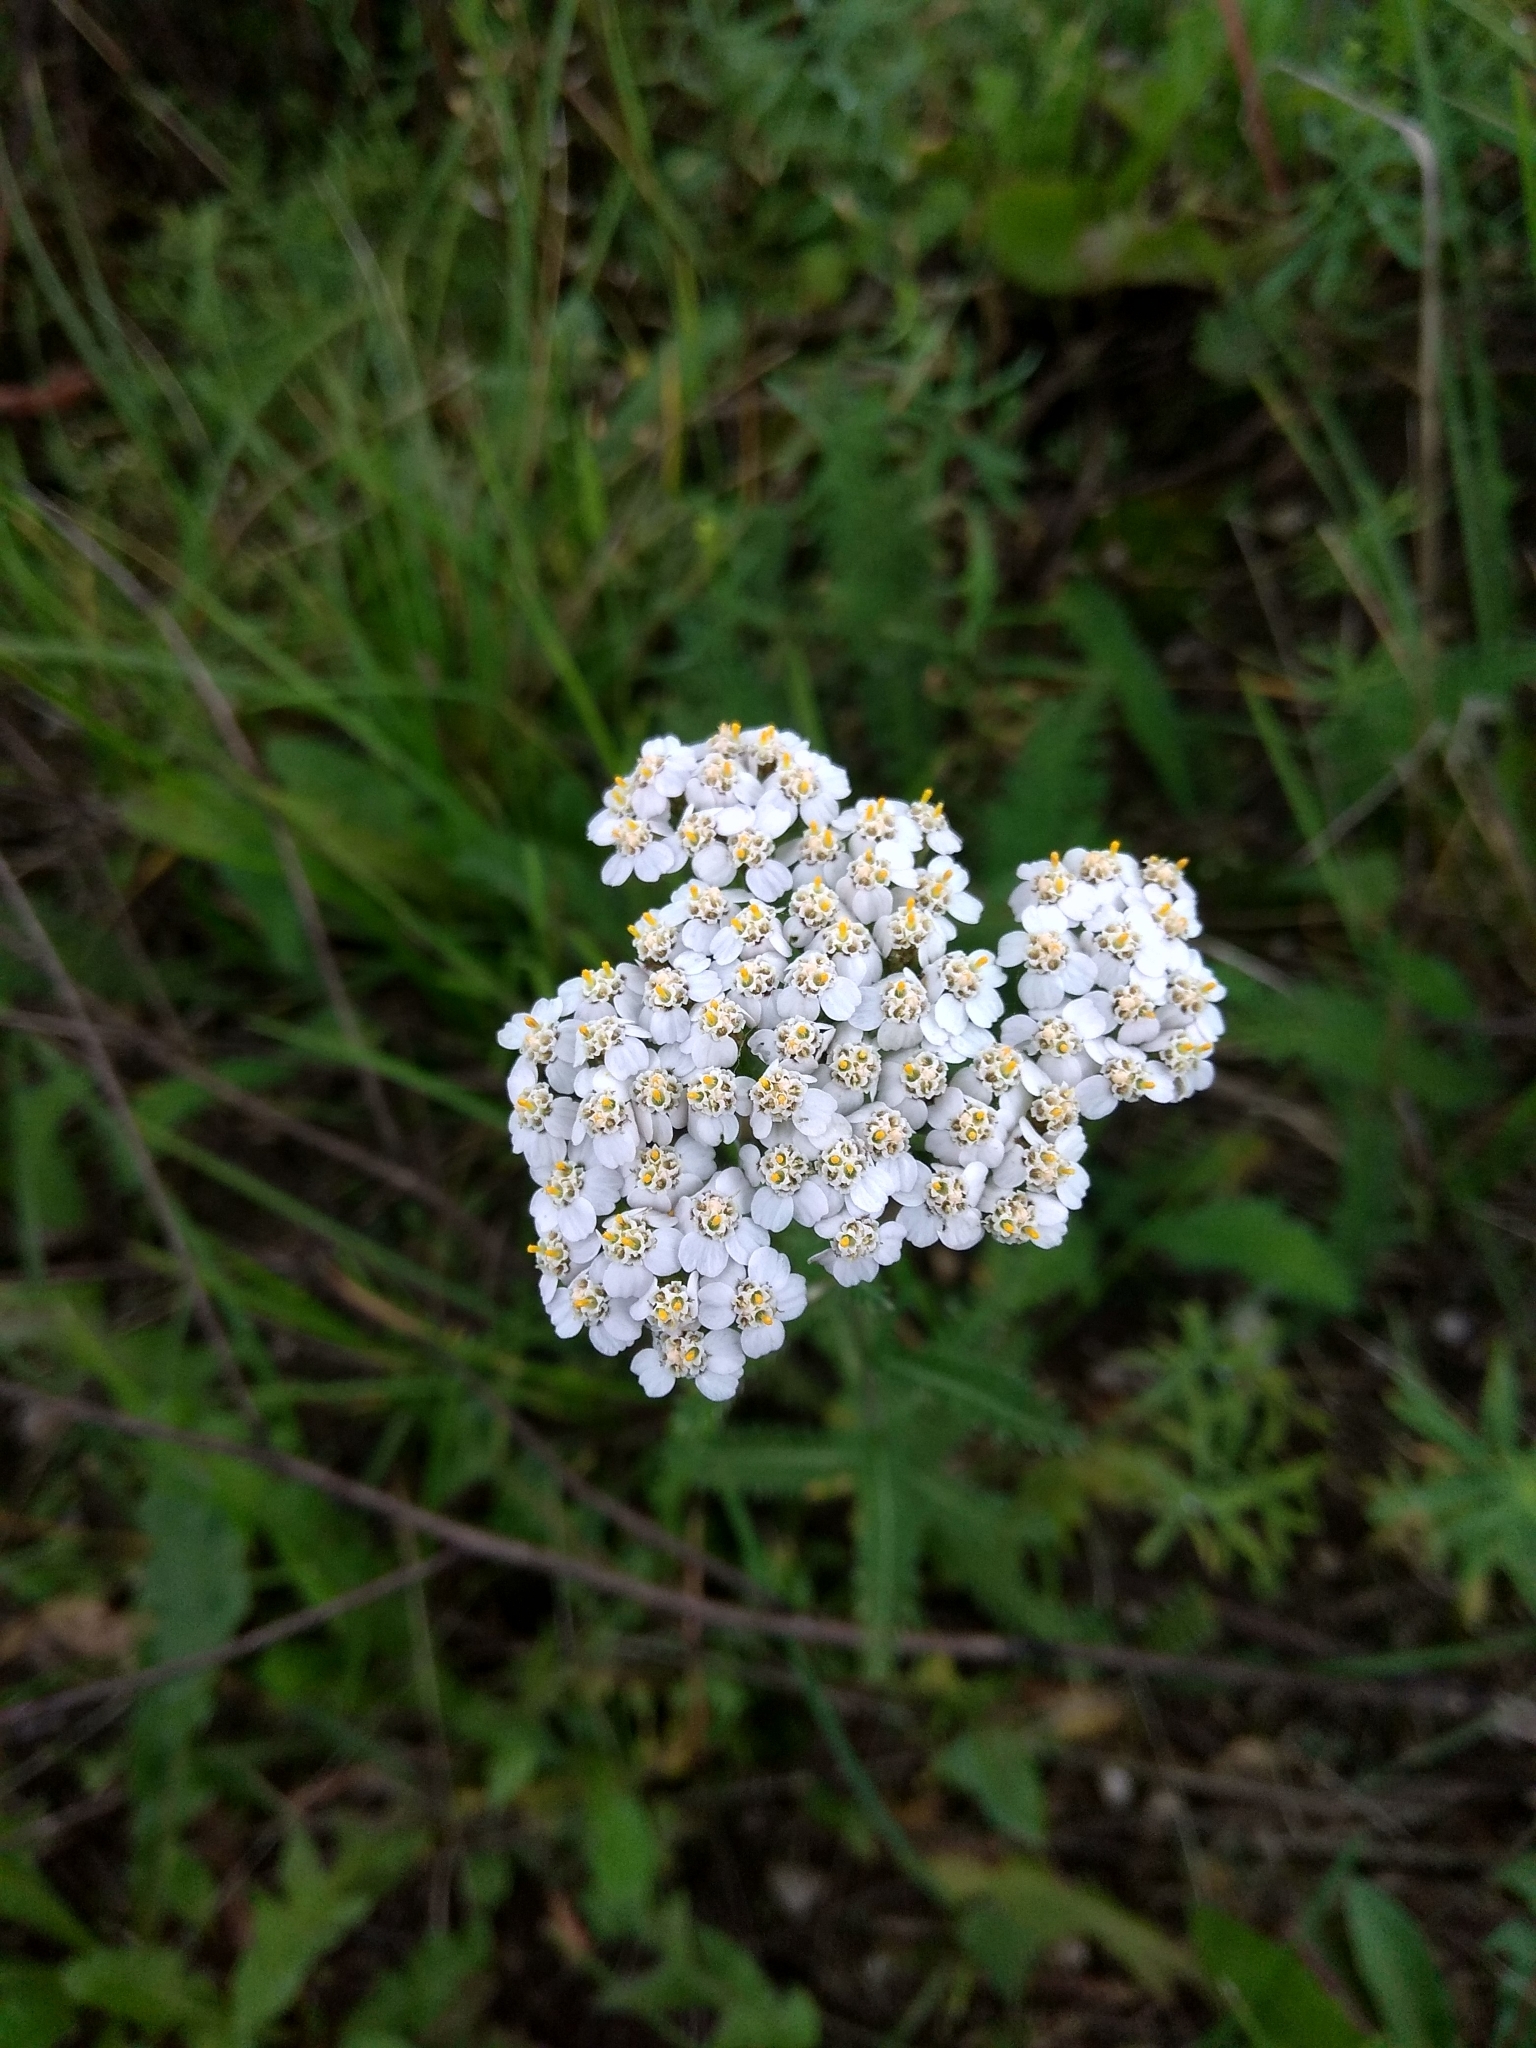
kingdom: Plantae
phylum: Tracheophyta
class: Magnoliopsida
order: Asterales
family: Asteraceae
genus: Achillea
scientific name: Achillea millefolium
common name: Yarrow
